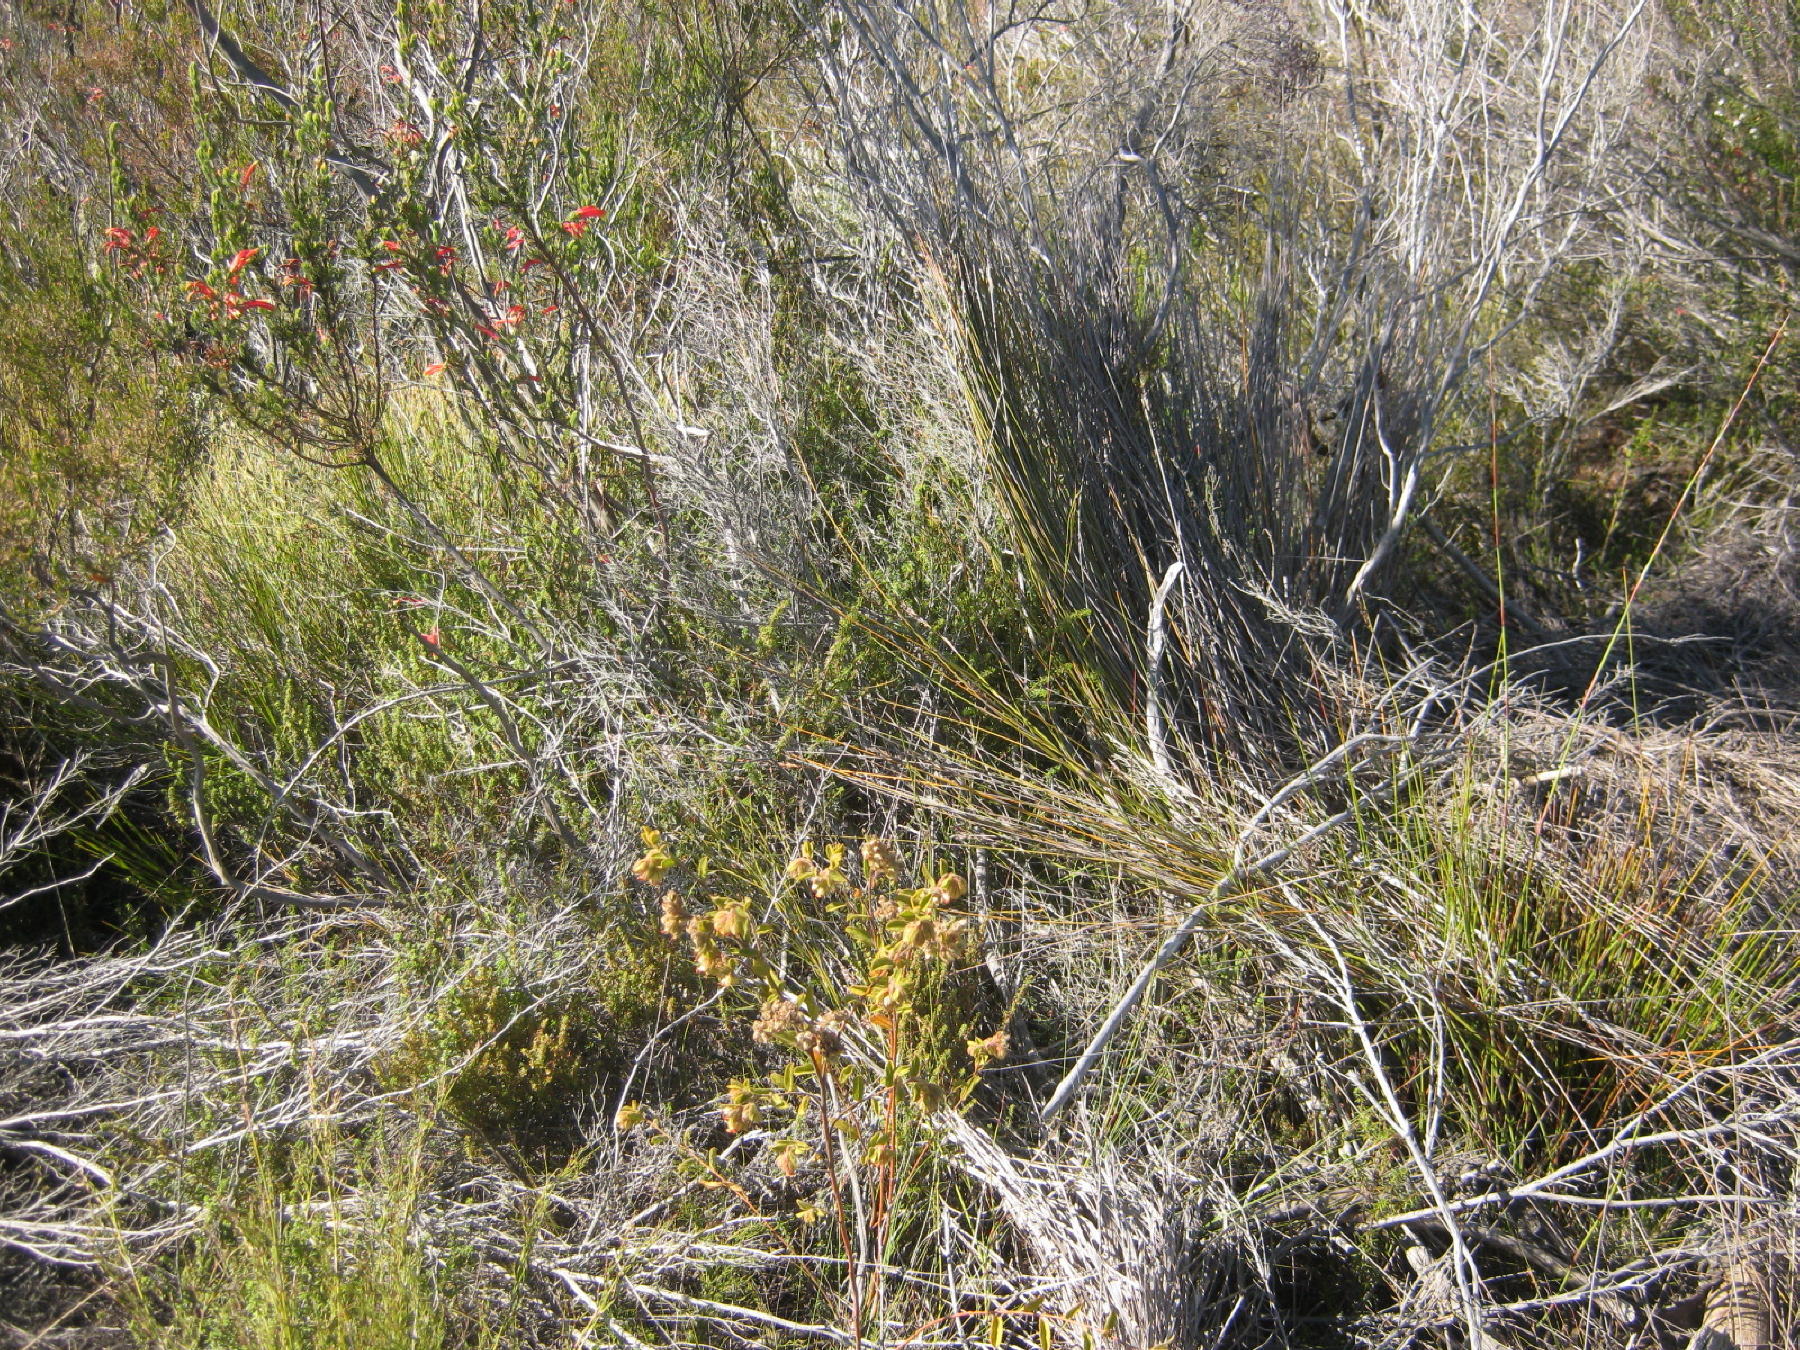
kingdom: Plantae
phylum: Tracheophyta
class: Magnoliopsida
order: Malvales
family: Malvaceae
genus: Hermannia
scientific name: Hermannia angularis
